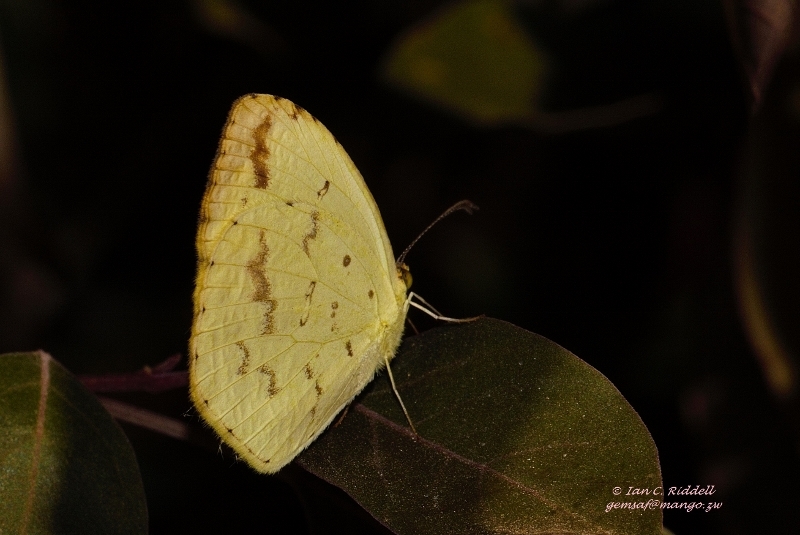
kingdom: Animalia
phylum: Arthropoda
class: Insecta
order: Lepidoptera
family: Pieridae
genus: Eurema
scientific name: Eurema desjardinsii
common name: Angled grass yellow
